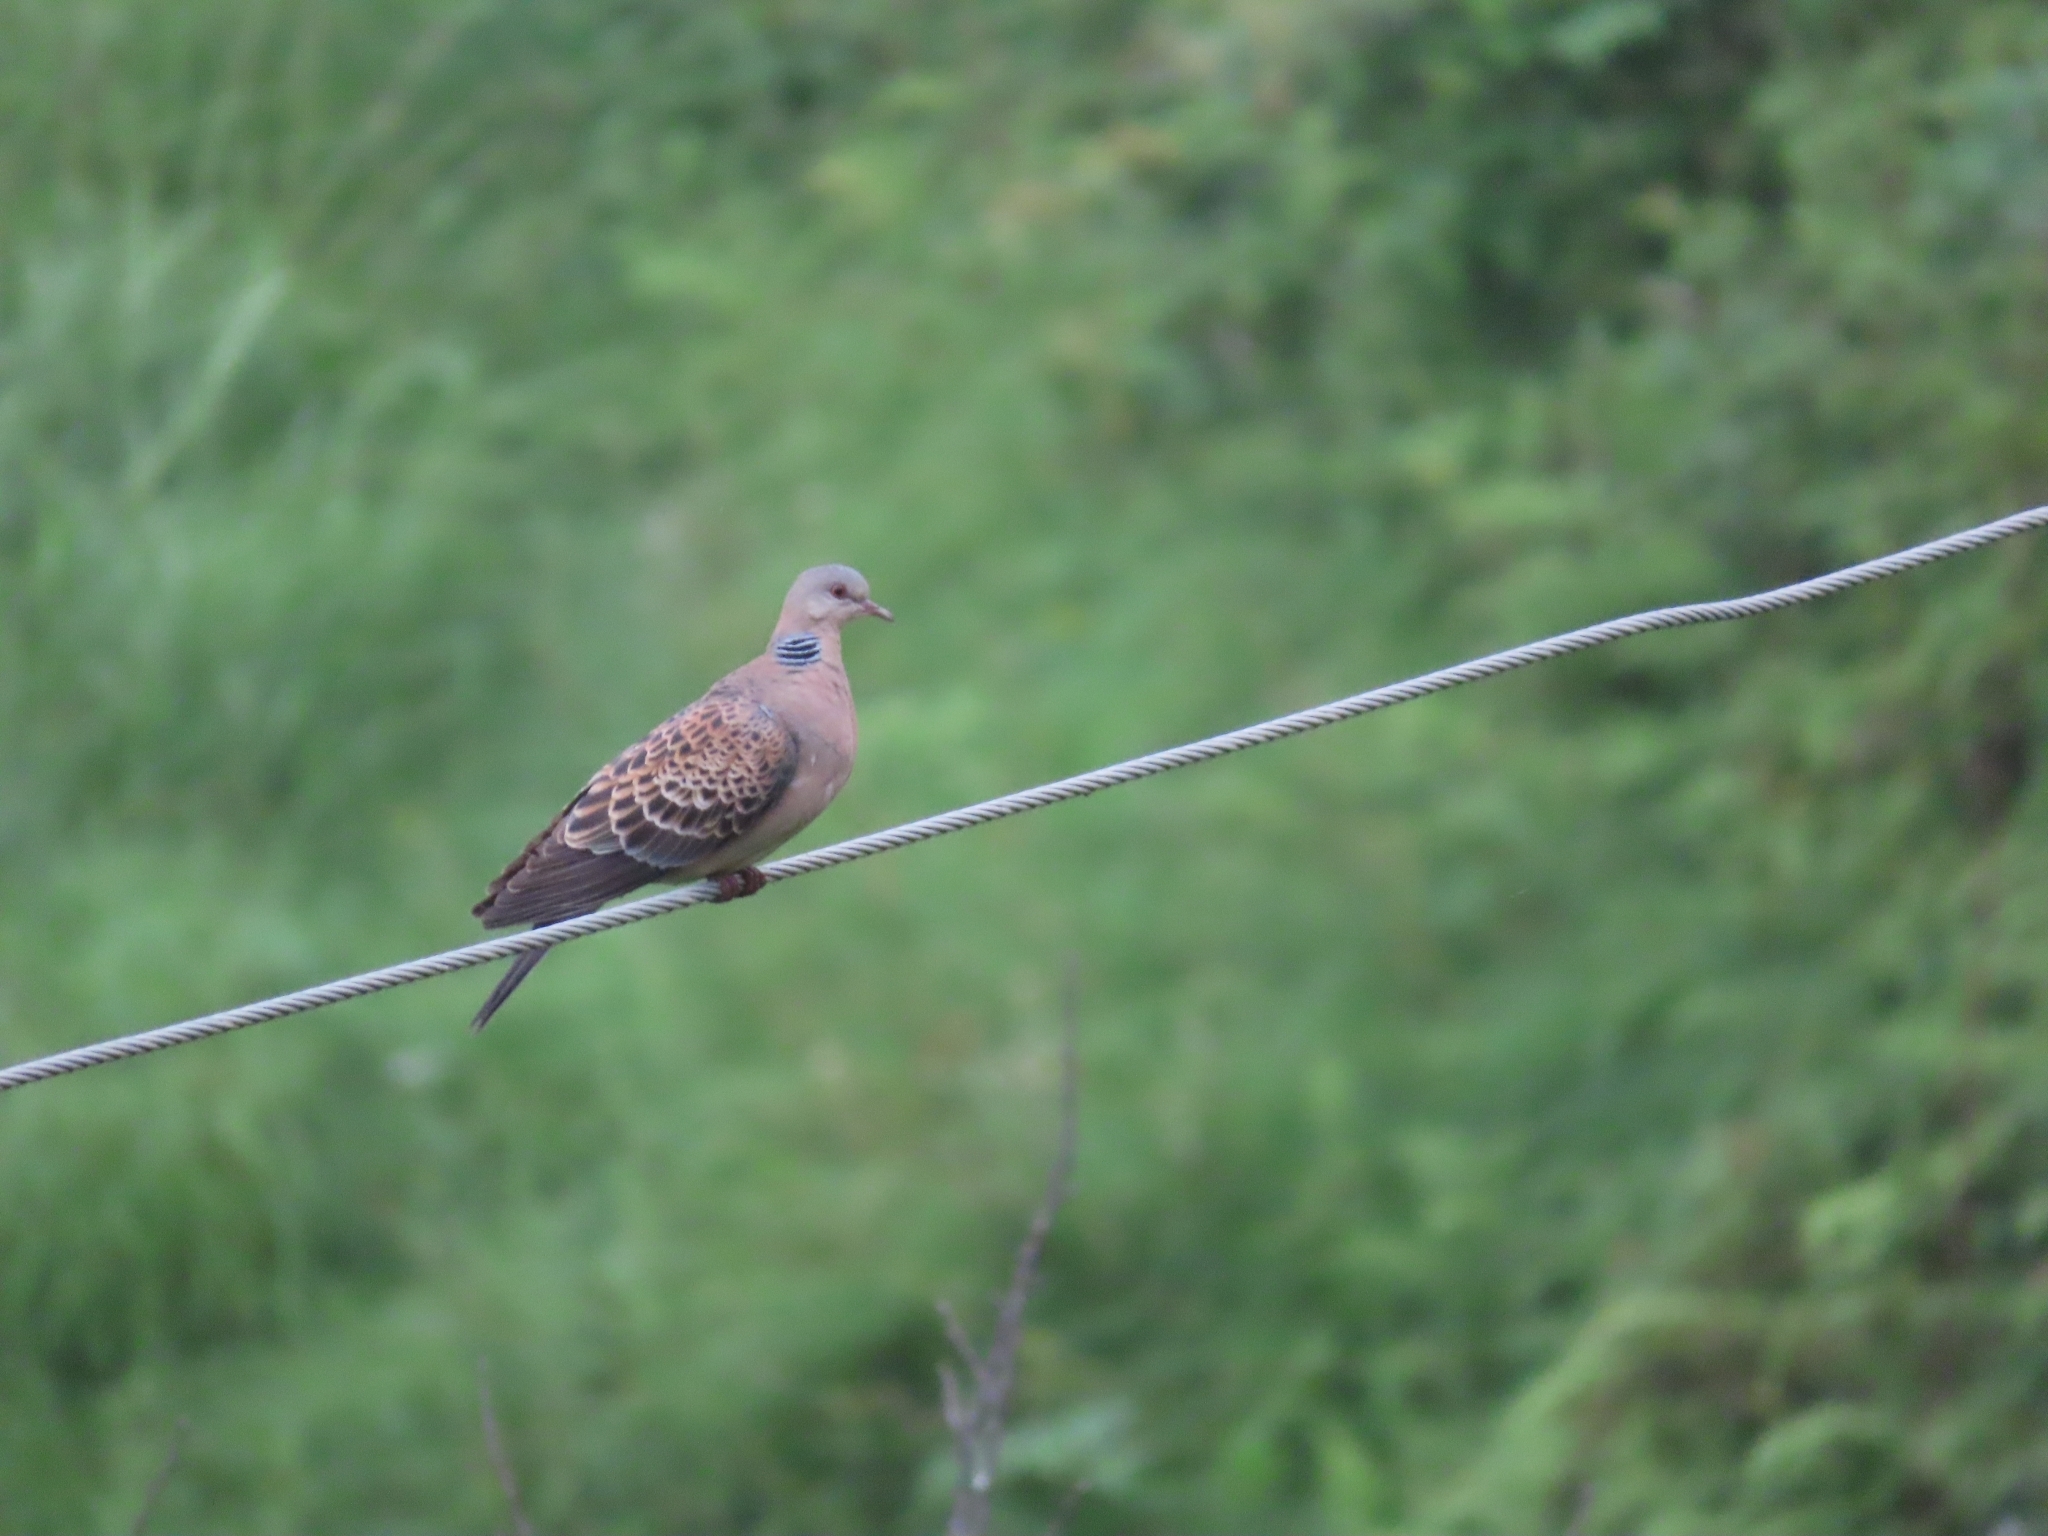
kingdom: Animalia
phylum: Chordata
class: Aves
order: Columbiformes
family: Columbidae
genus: Streptopelia
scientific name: Streptopelia orientalis
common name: Oriental turtle dove
